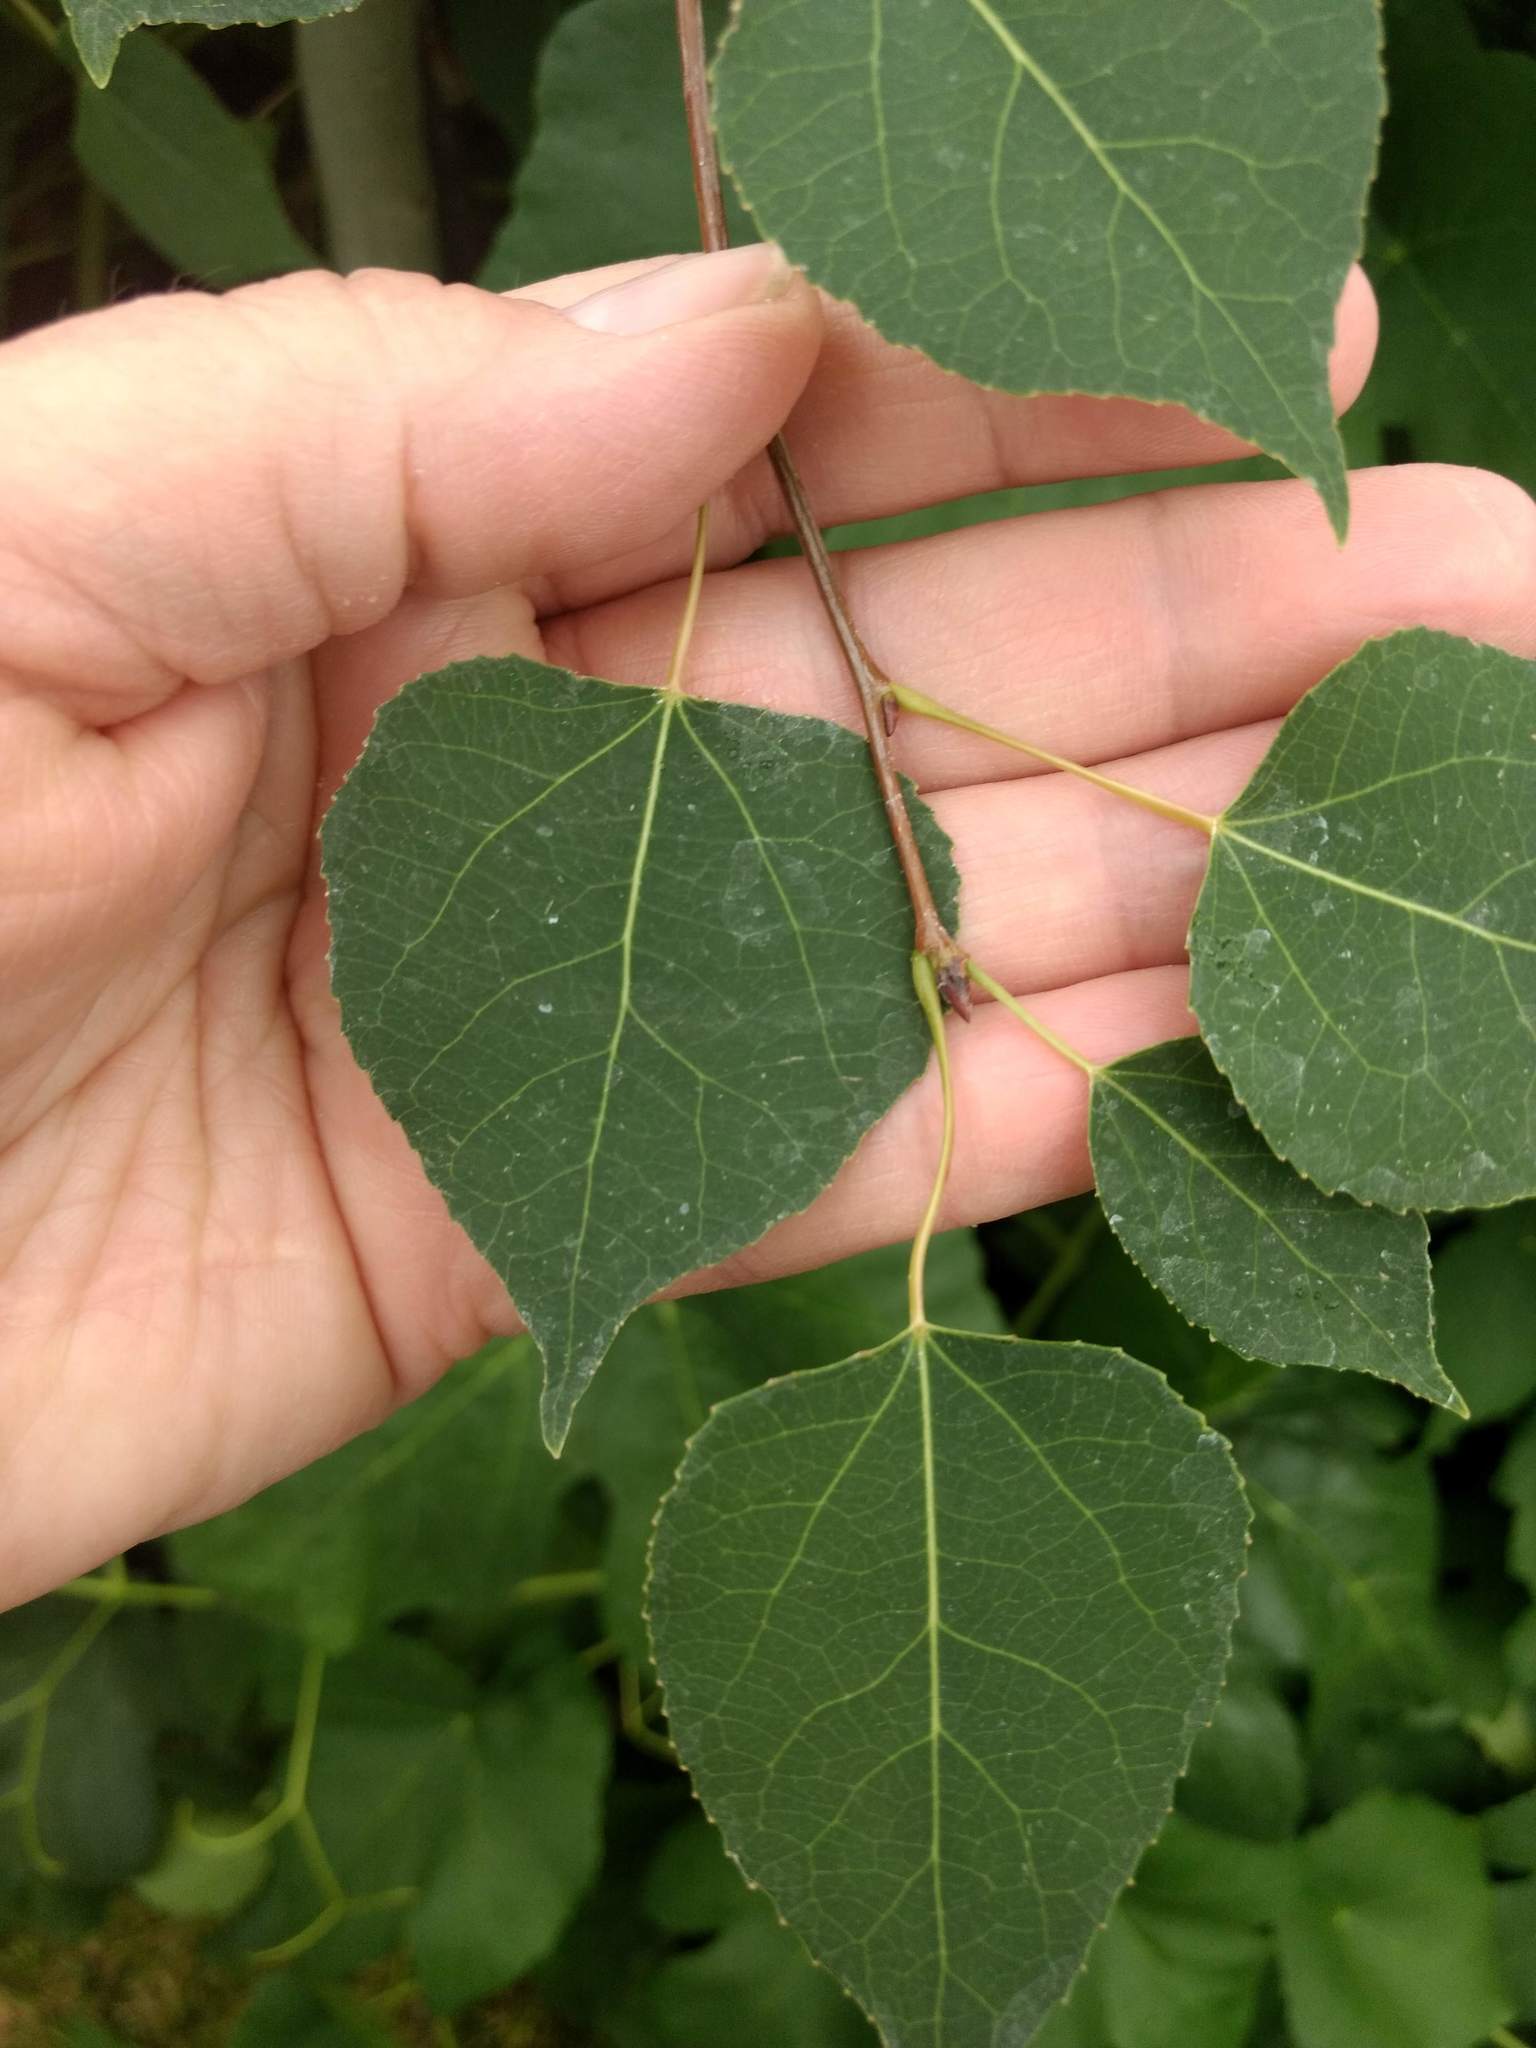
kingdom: Plantae
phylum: Tracheophyta
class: Magnoliopsida
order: Malpighiales
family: Salicaceae
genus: Populus
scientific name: Populus tremuloides
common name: Quaking aspen
